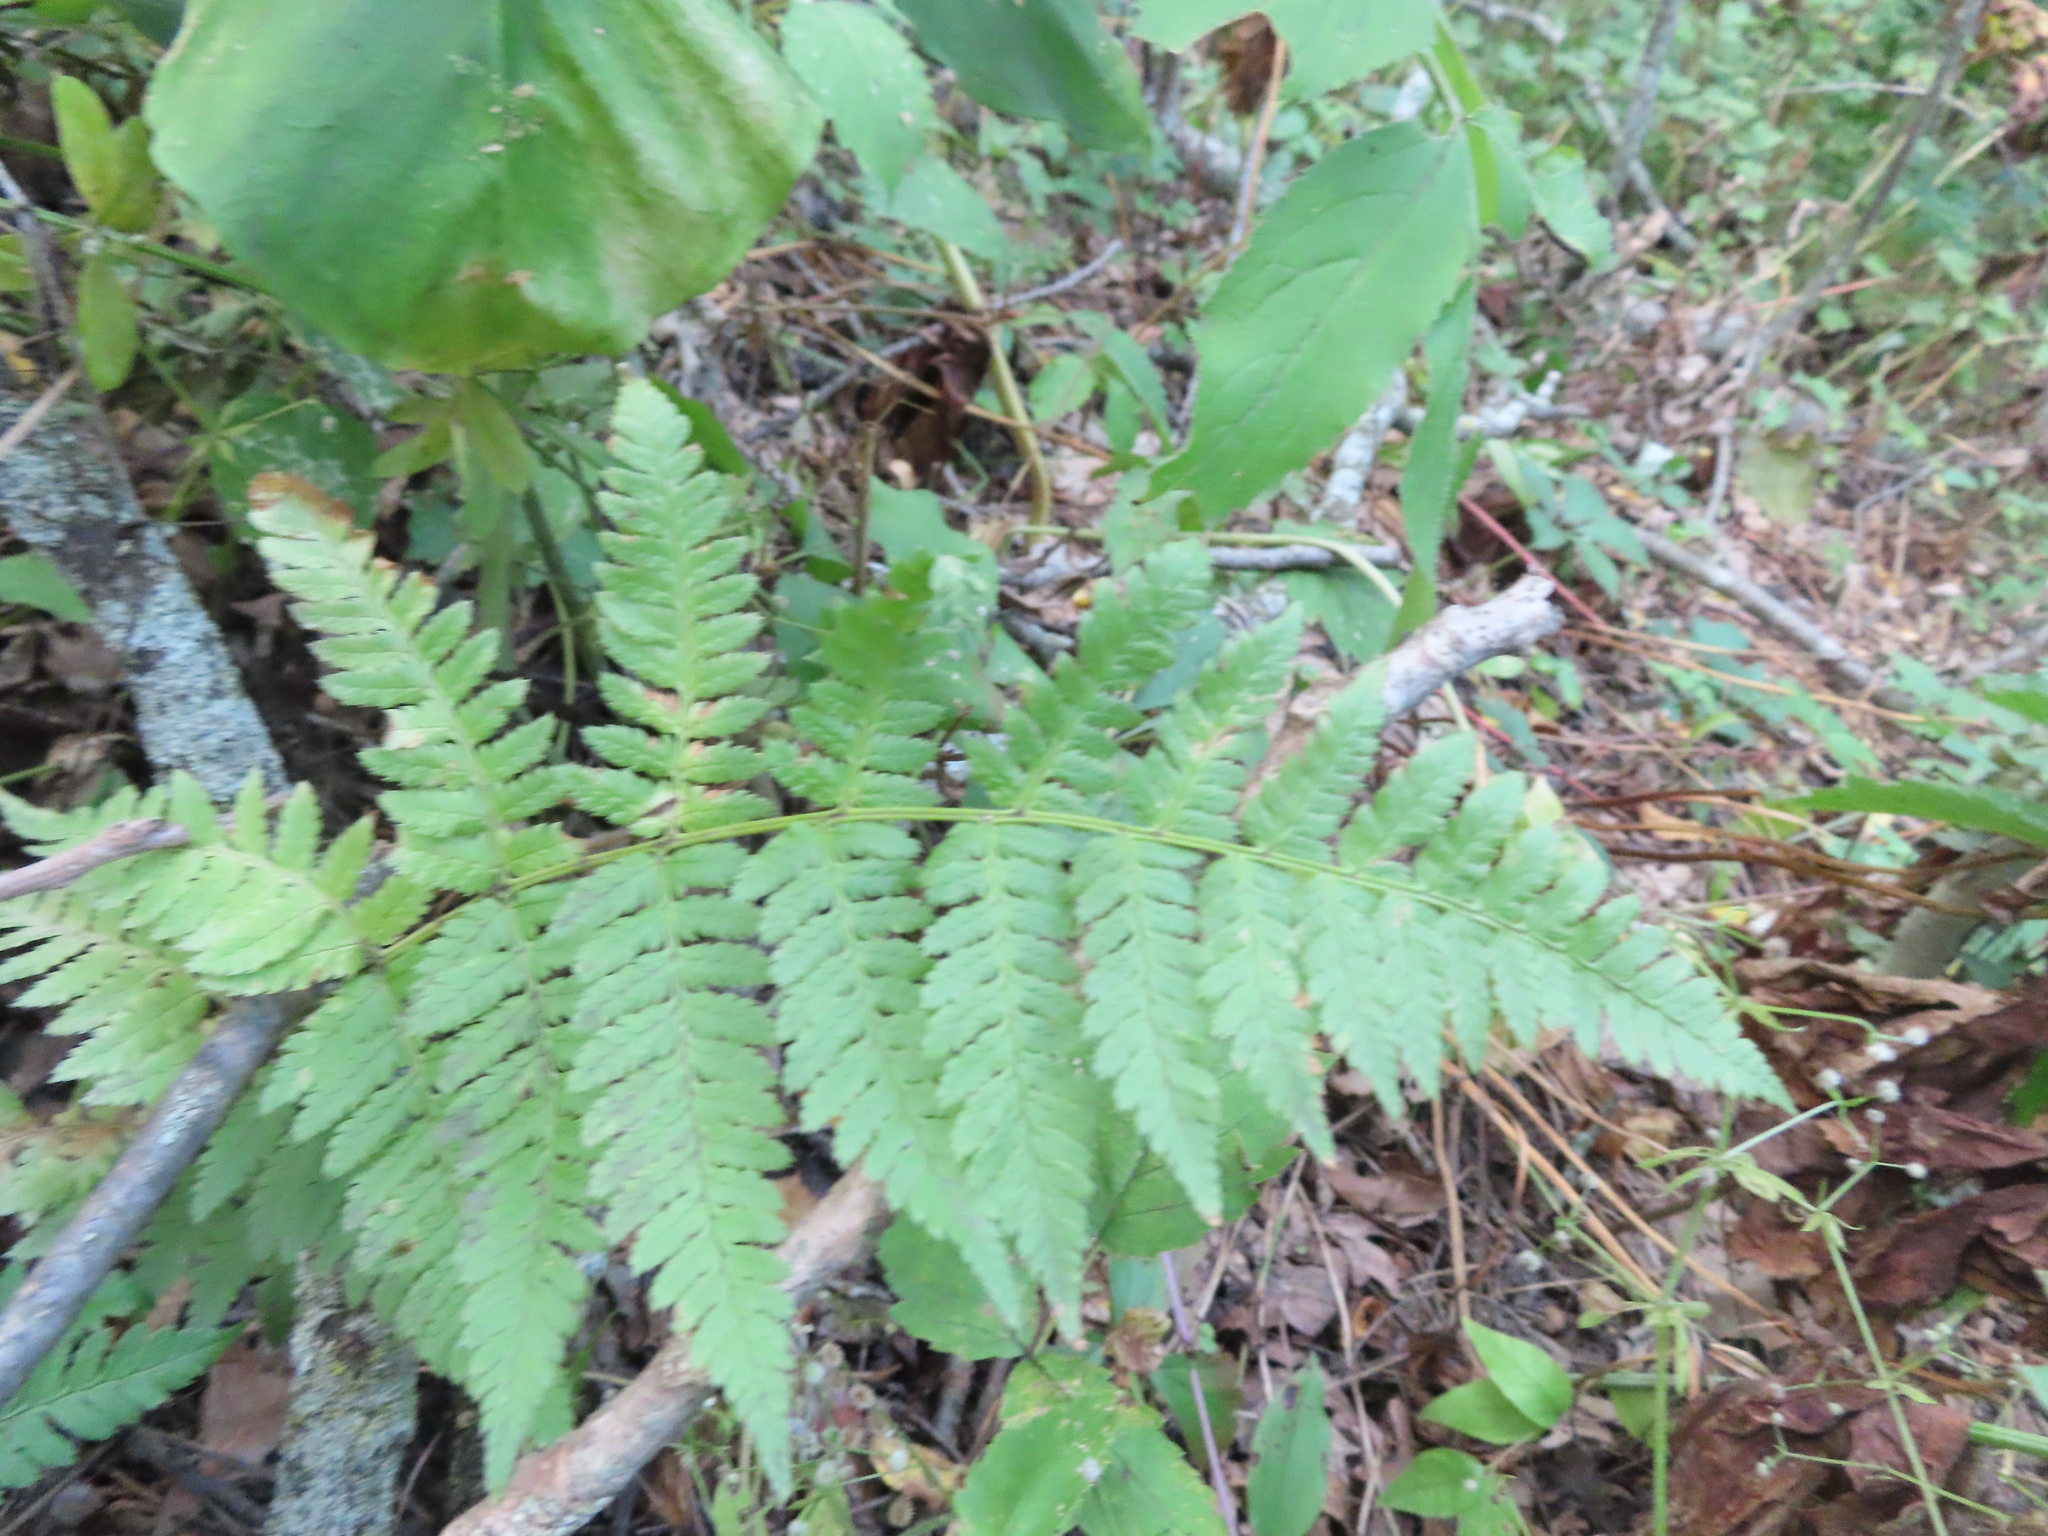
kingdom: Plantae
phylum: Tracheophyta
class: Polypodiopsida
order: Polypodiales
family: Dryopteridaceae
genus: Dryopteris
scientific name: Dryopteris carthusiana
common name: Narrow buckler-fern
